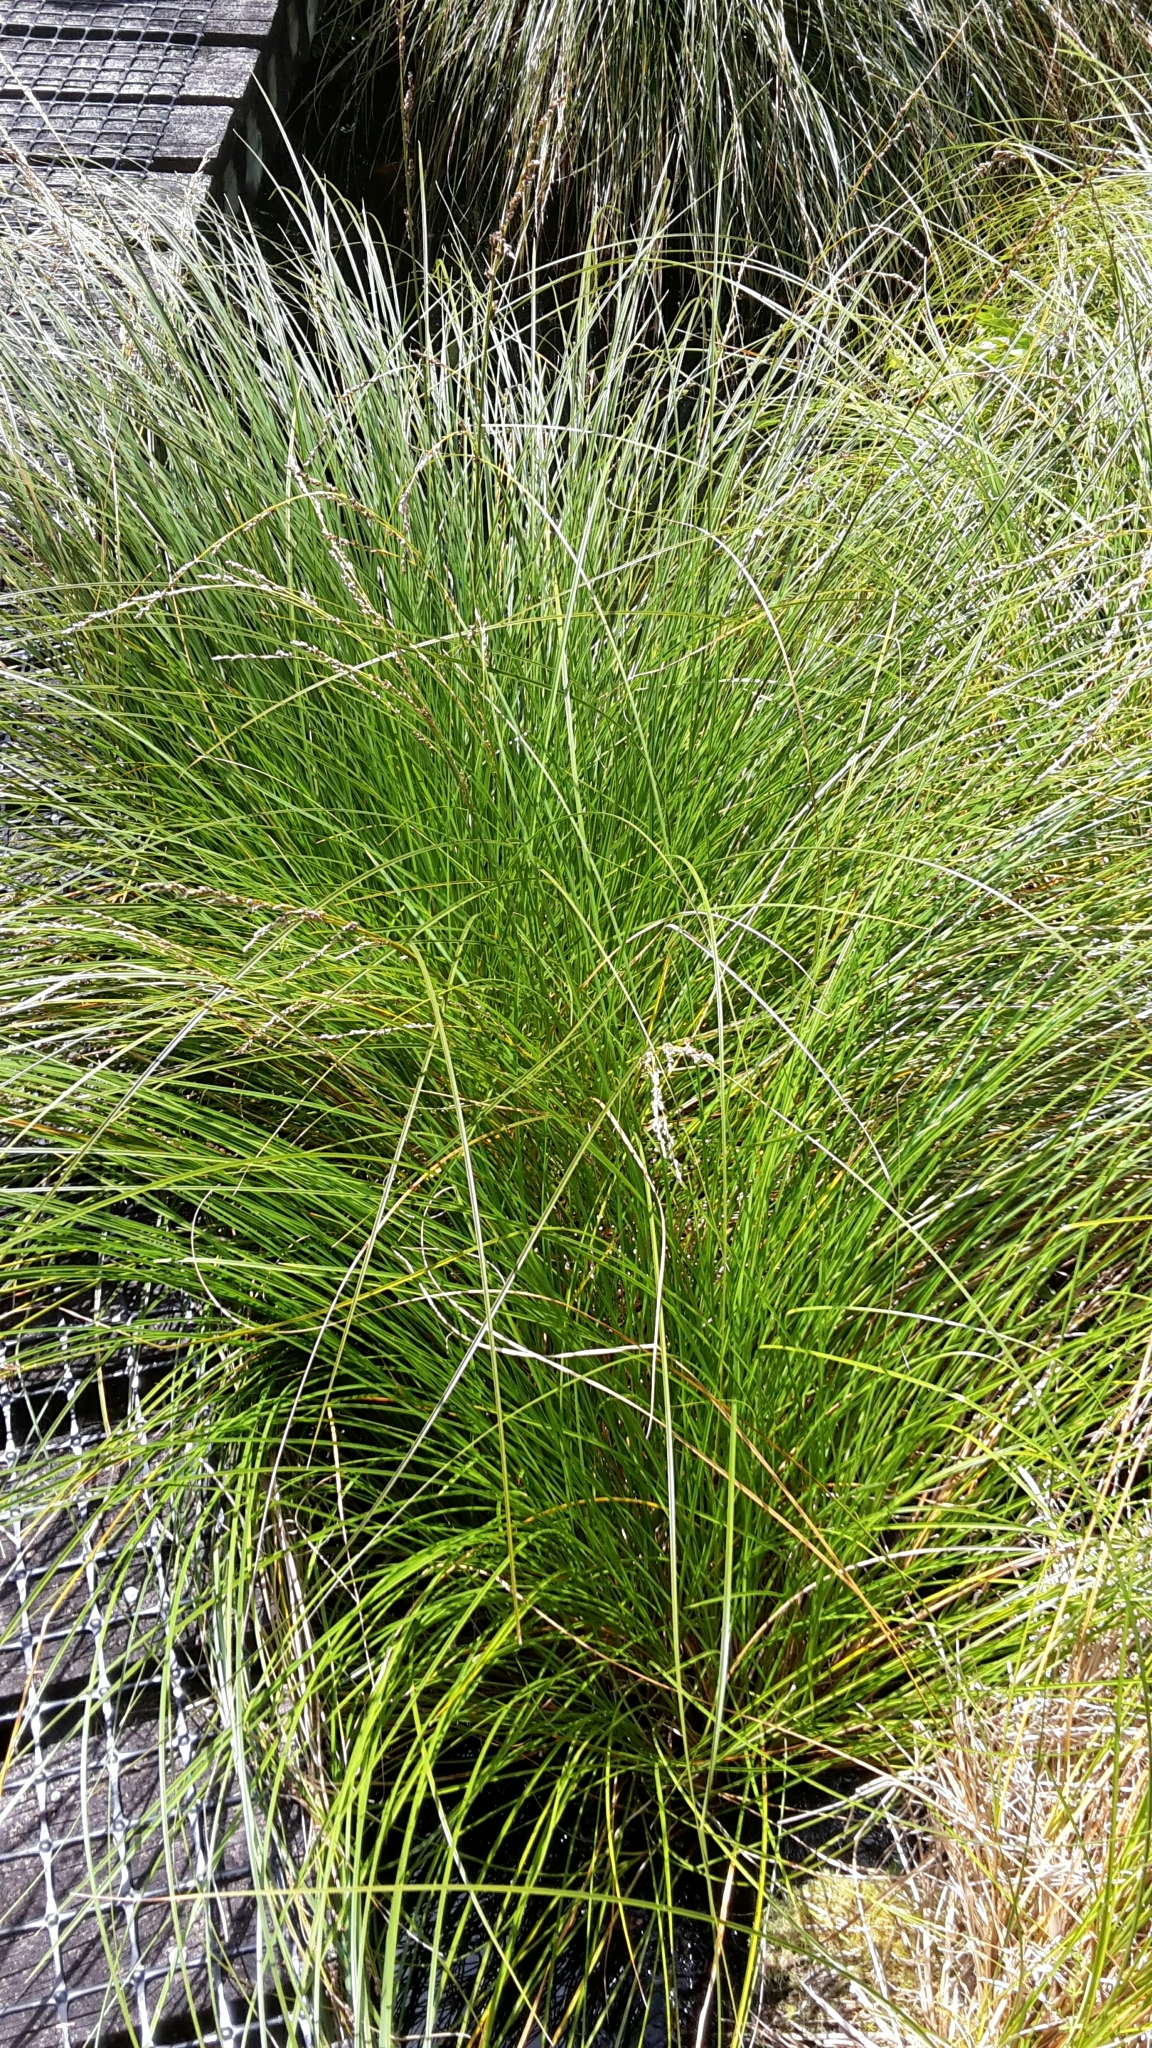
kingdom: Plantae
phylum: Tracheophyta
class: Liliopsida
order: Poales
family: Cyperaceae
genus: Carex
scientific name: Carex secta
